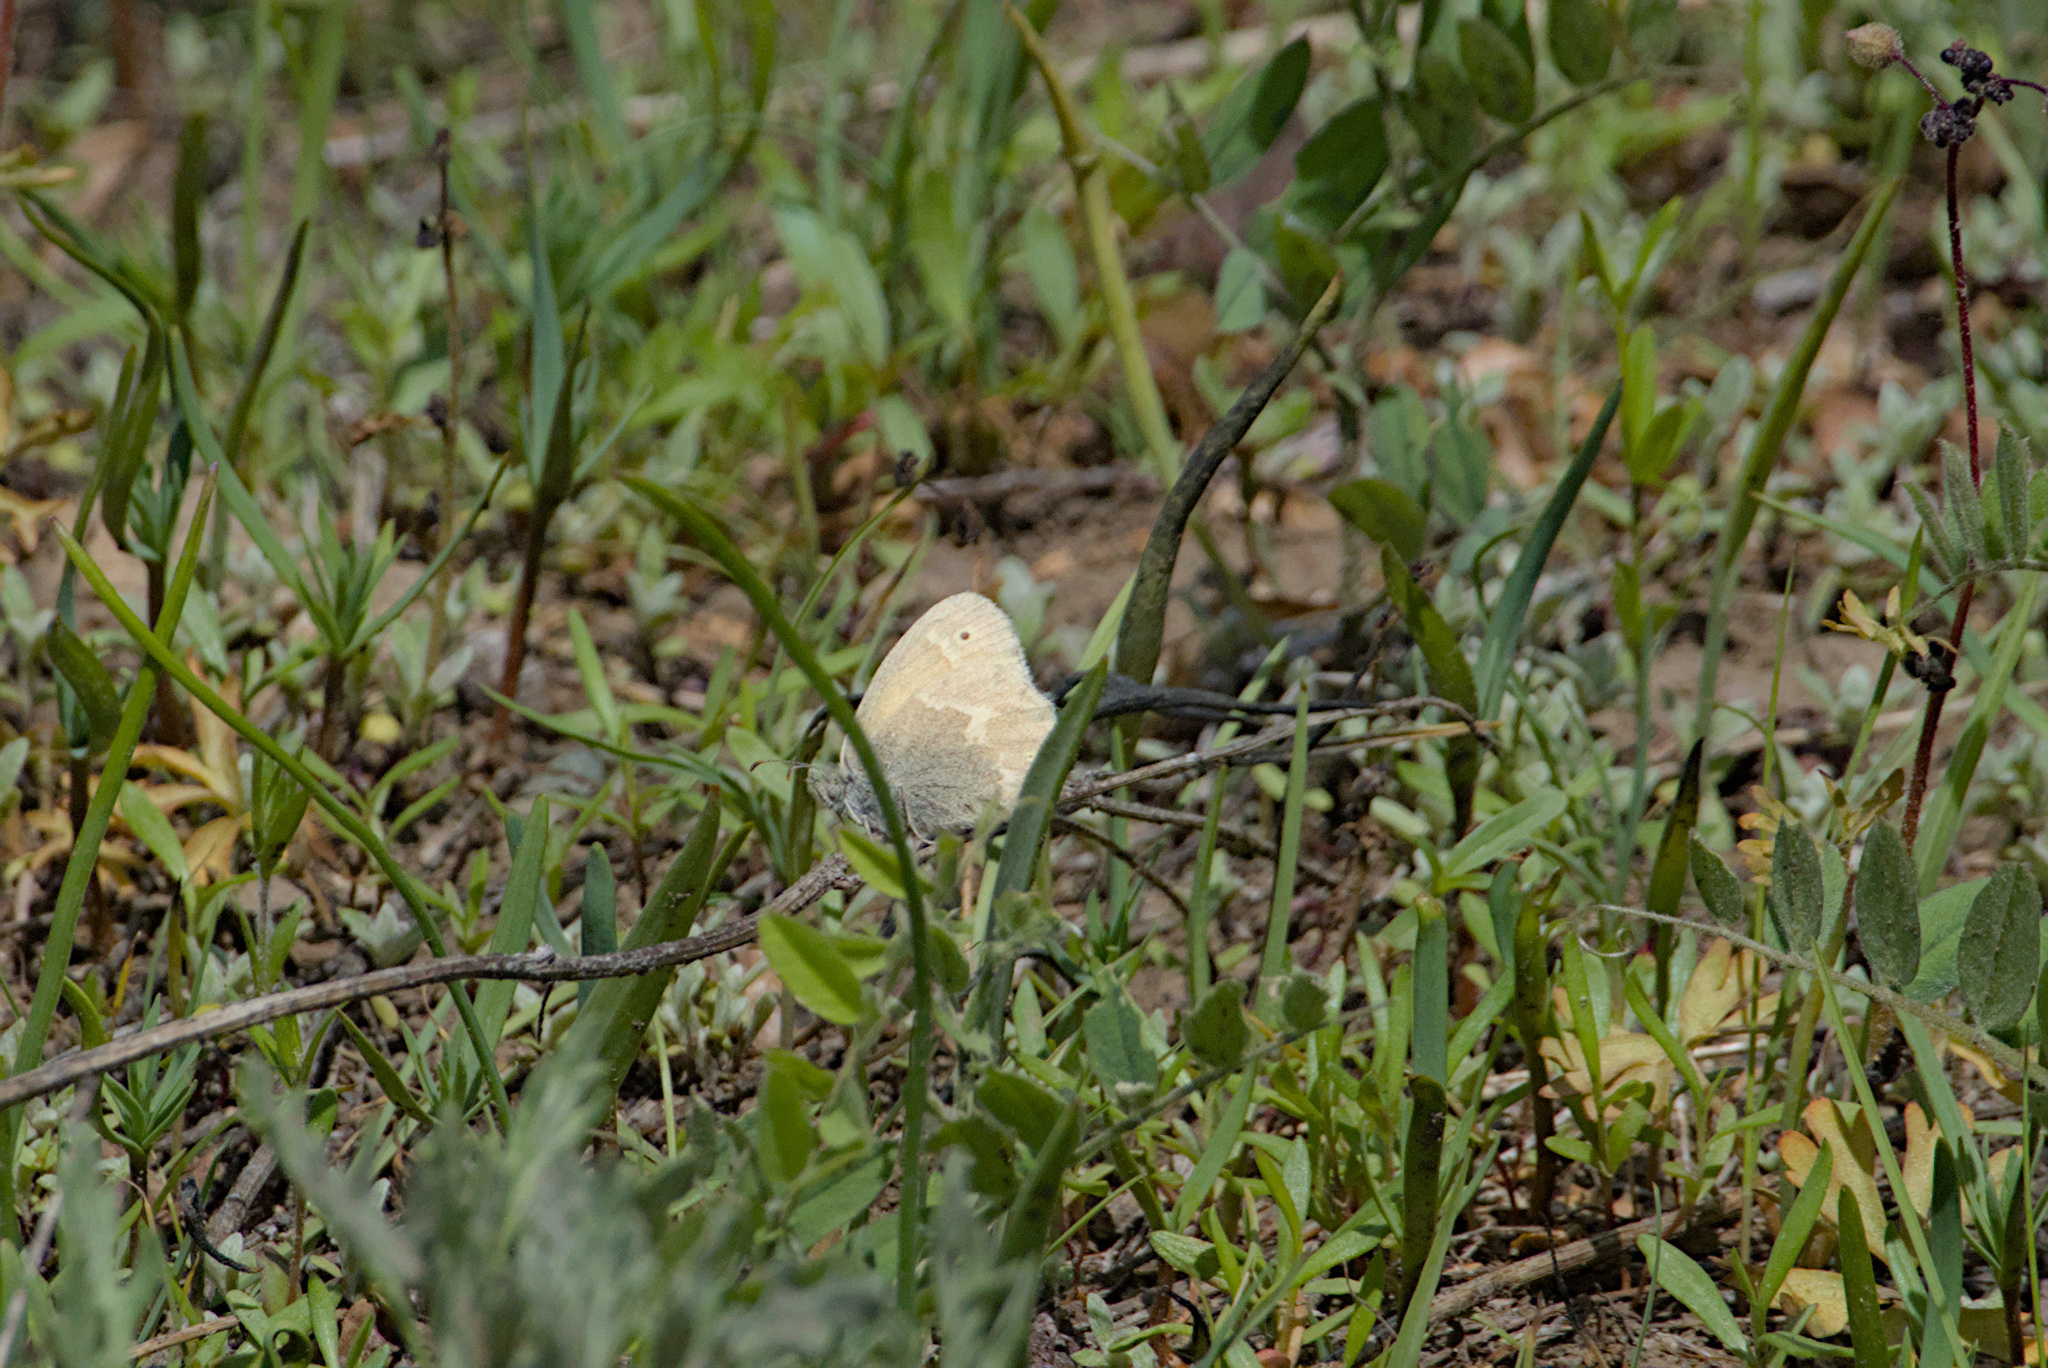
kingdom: Animalia
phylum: Arthropoda
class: Insecta
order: Lepidoptera
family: Nymphalidae
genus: Coenonympha
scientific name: Coenonympha california
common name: Common ringlet
